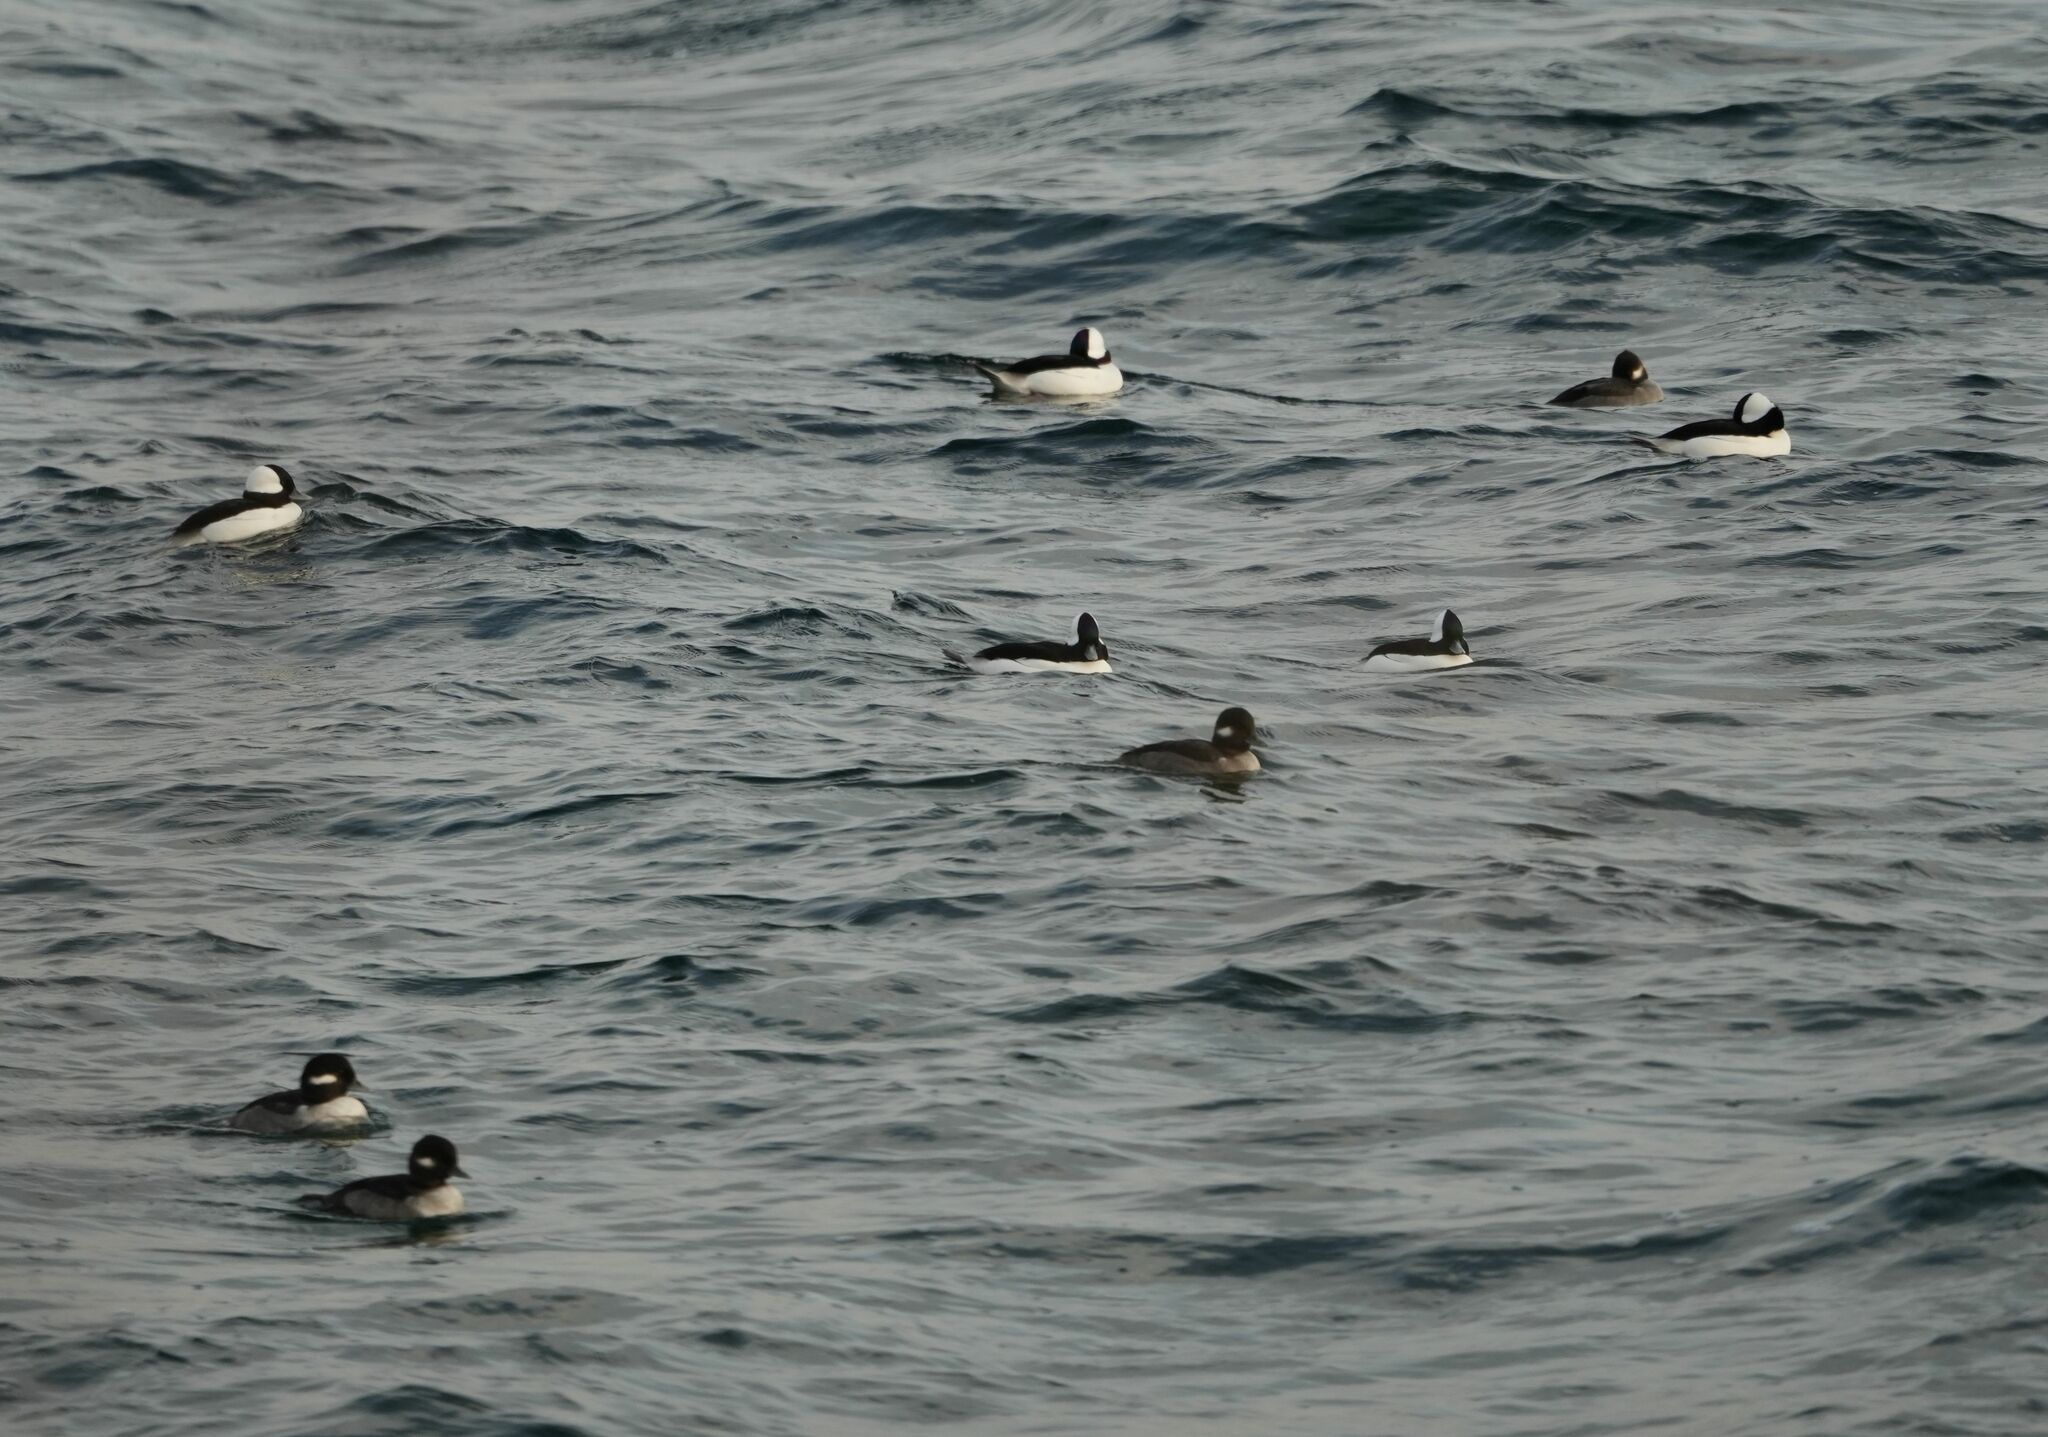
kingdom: Animalia
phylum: Chordata
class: Aves
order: Anseriformes
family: Anatidae
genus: Bucephala
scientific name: Bucephala albeola
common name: Bufflehead
